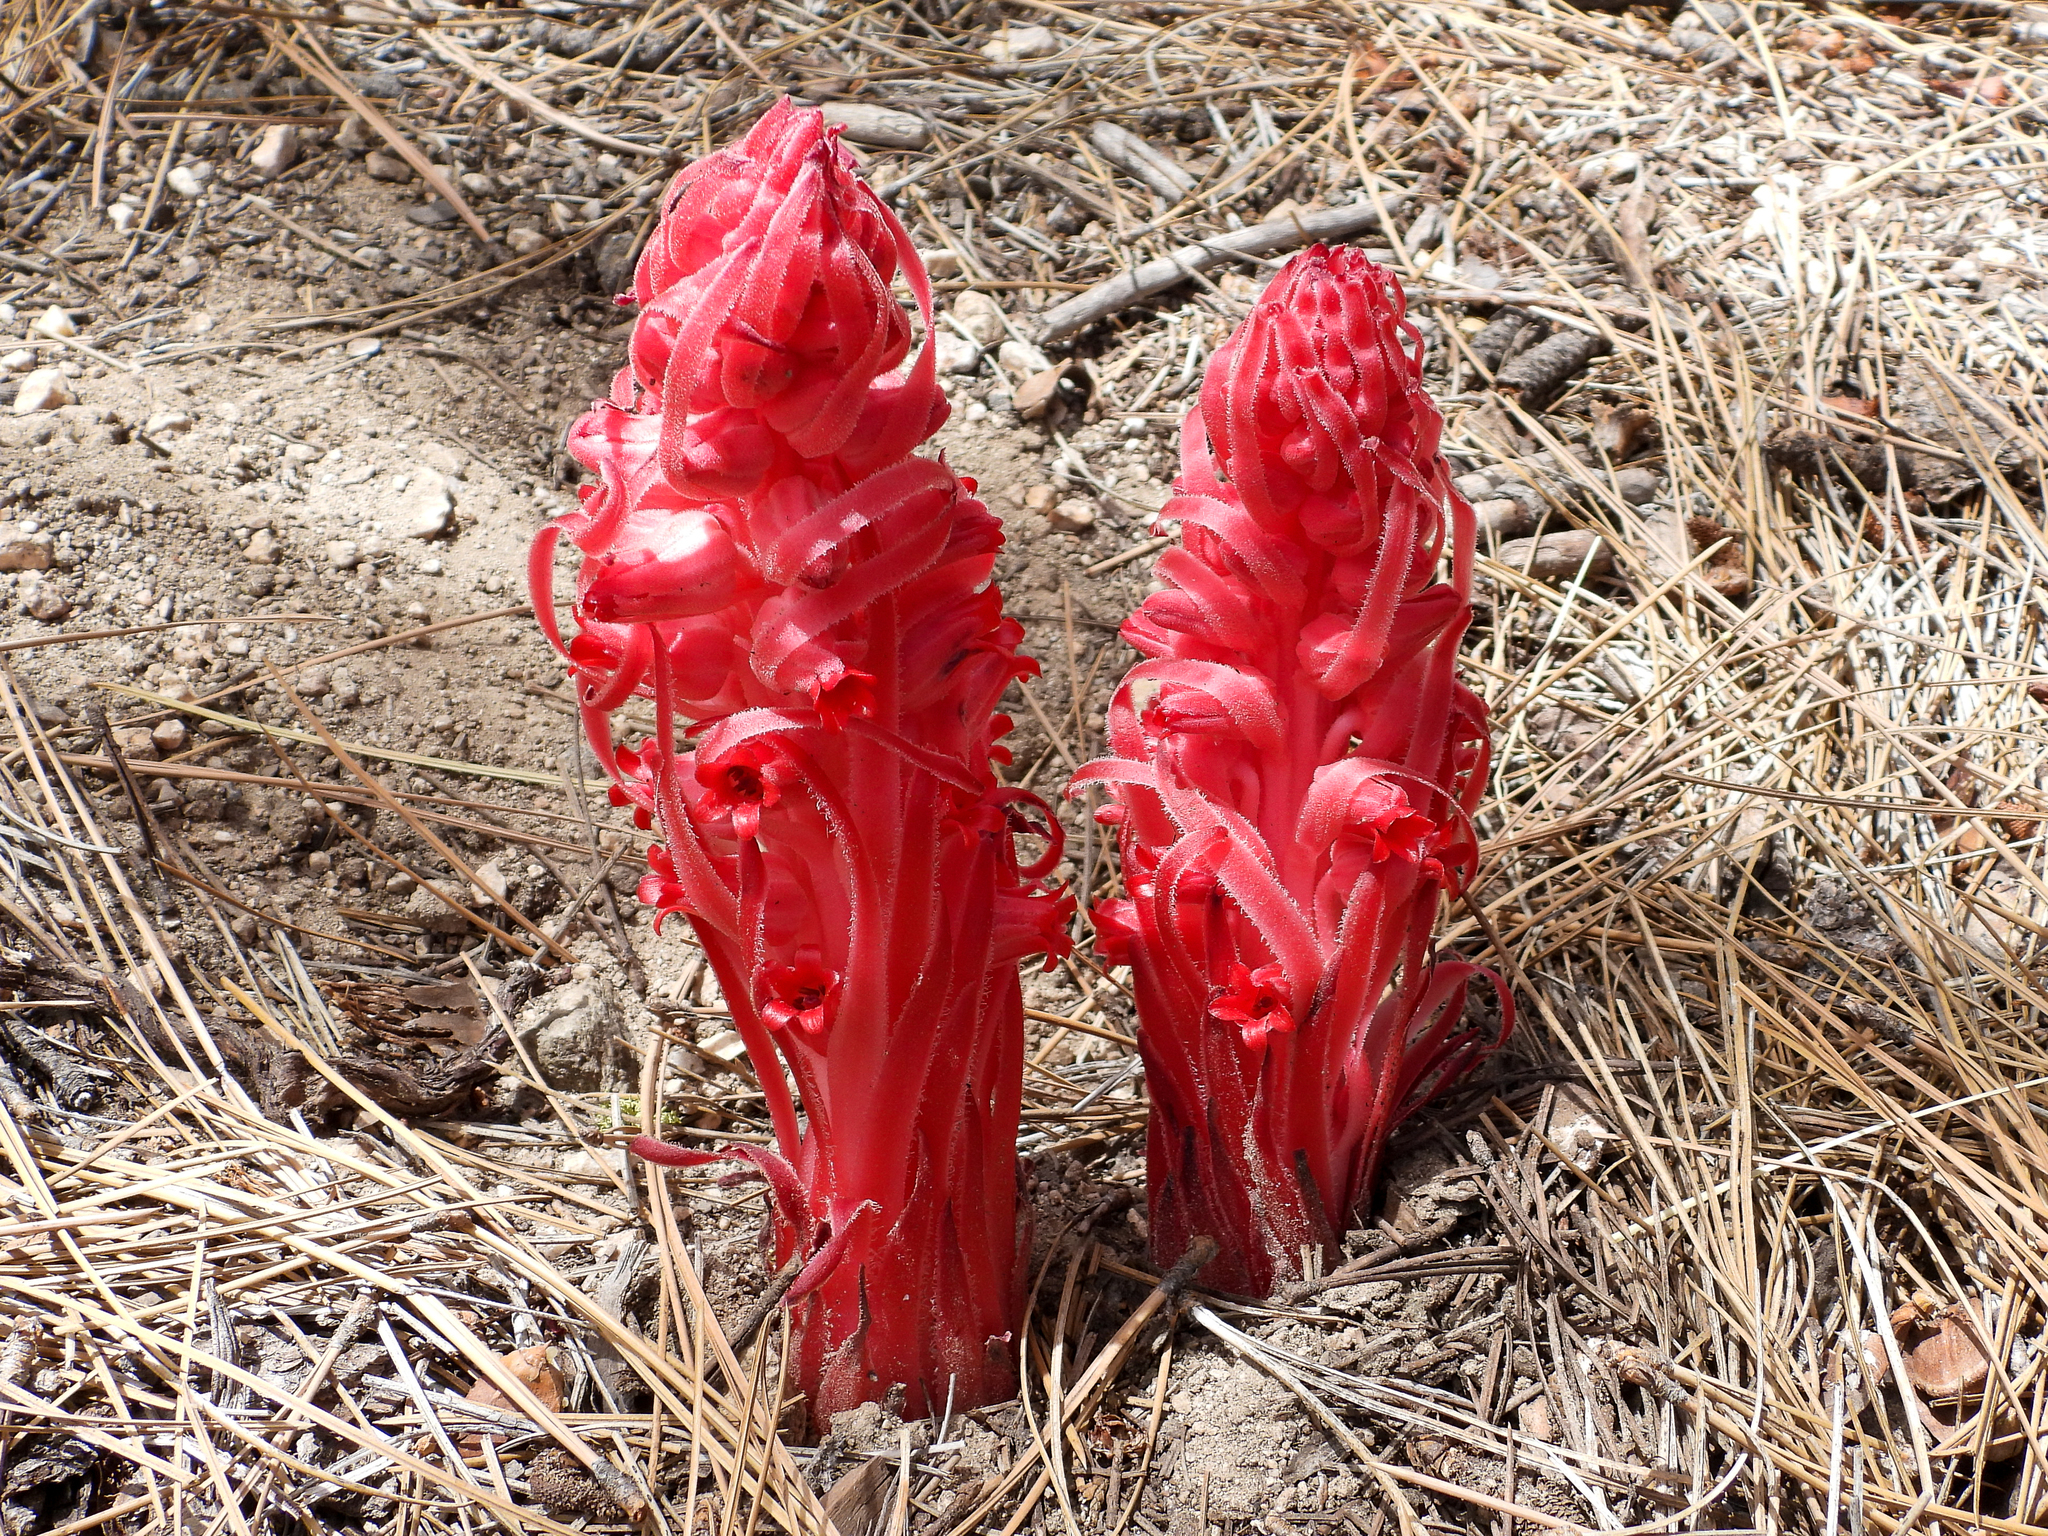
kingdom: Plantae
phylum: Tracheophyta
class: Magnoliopsida
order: Ericales
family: Ericaceae
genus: Sarcodes
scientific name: Sarcodes sanguinea
